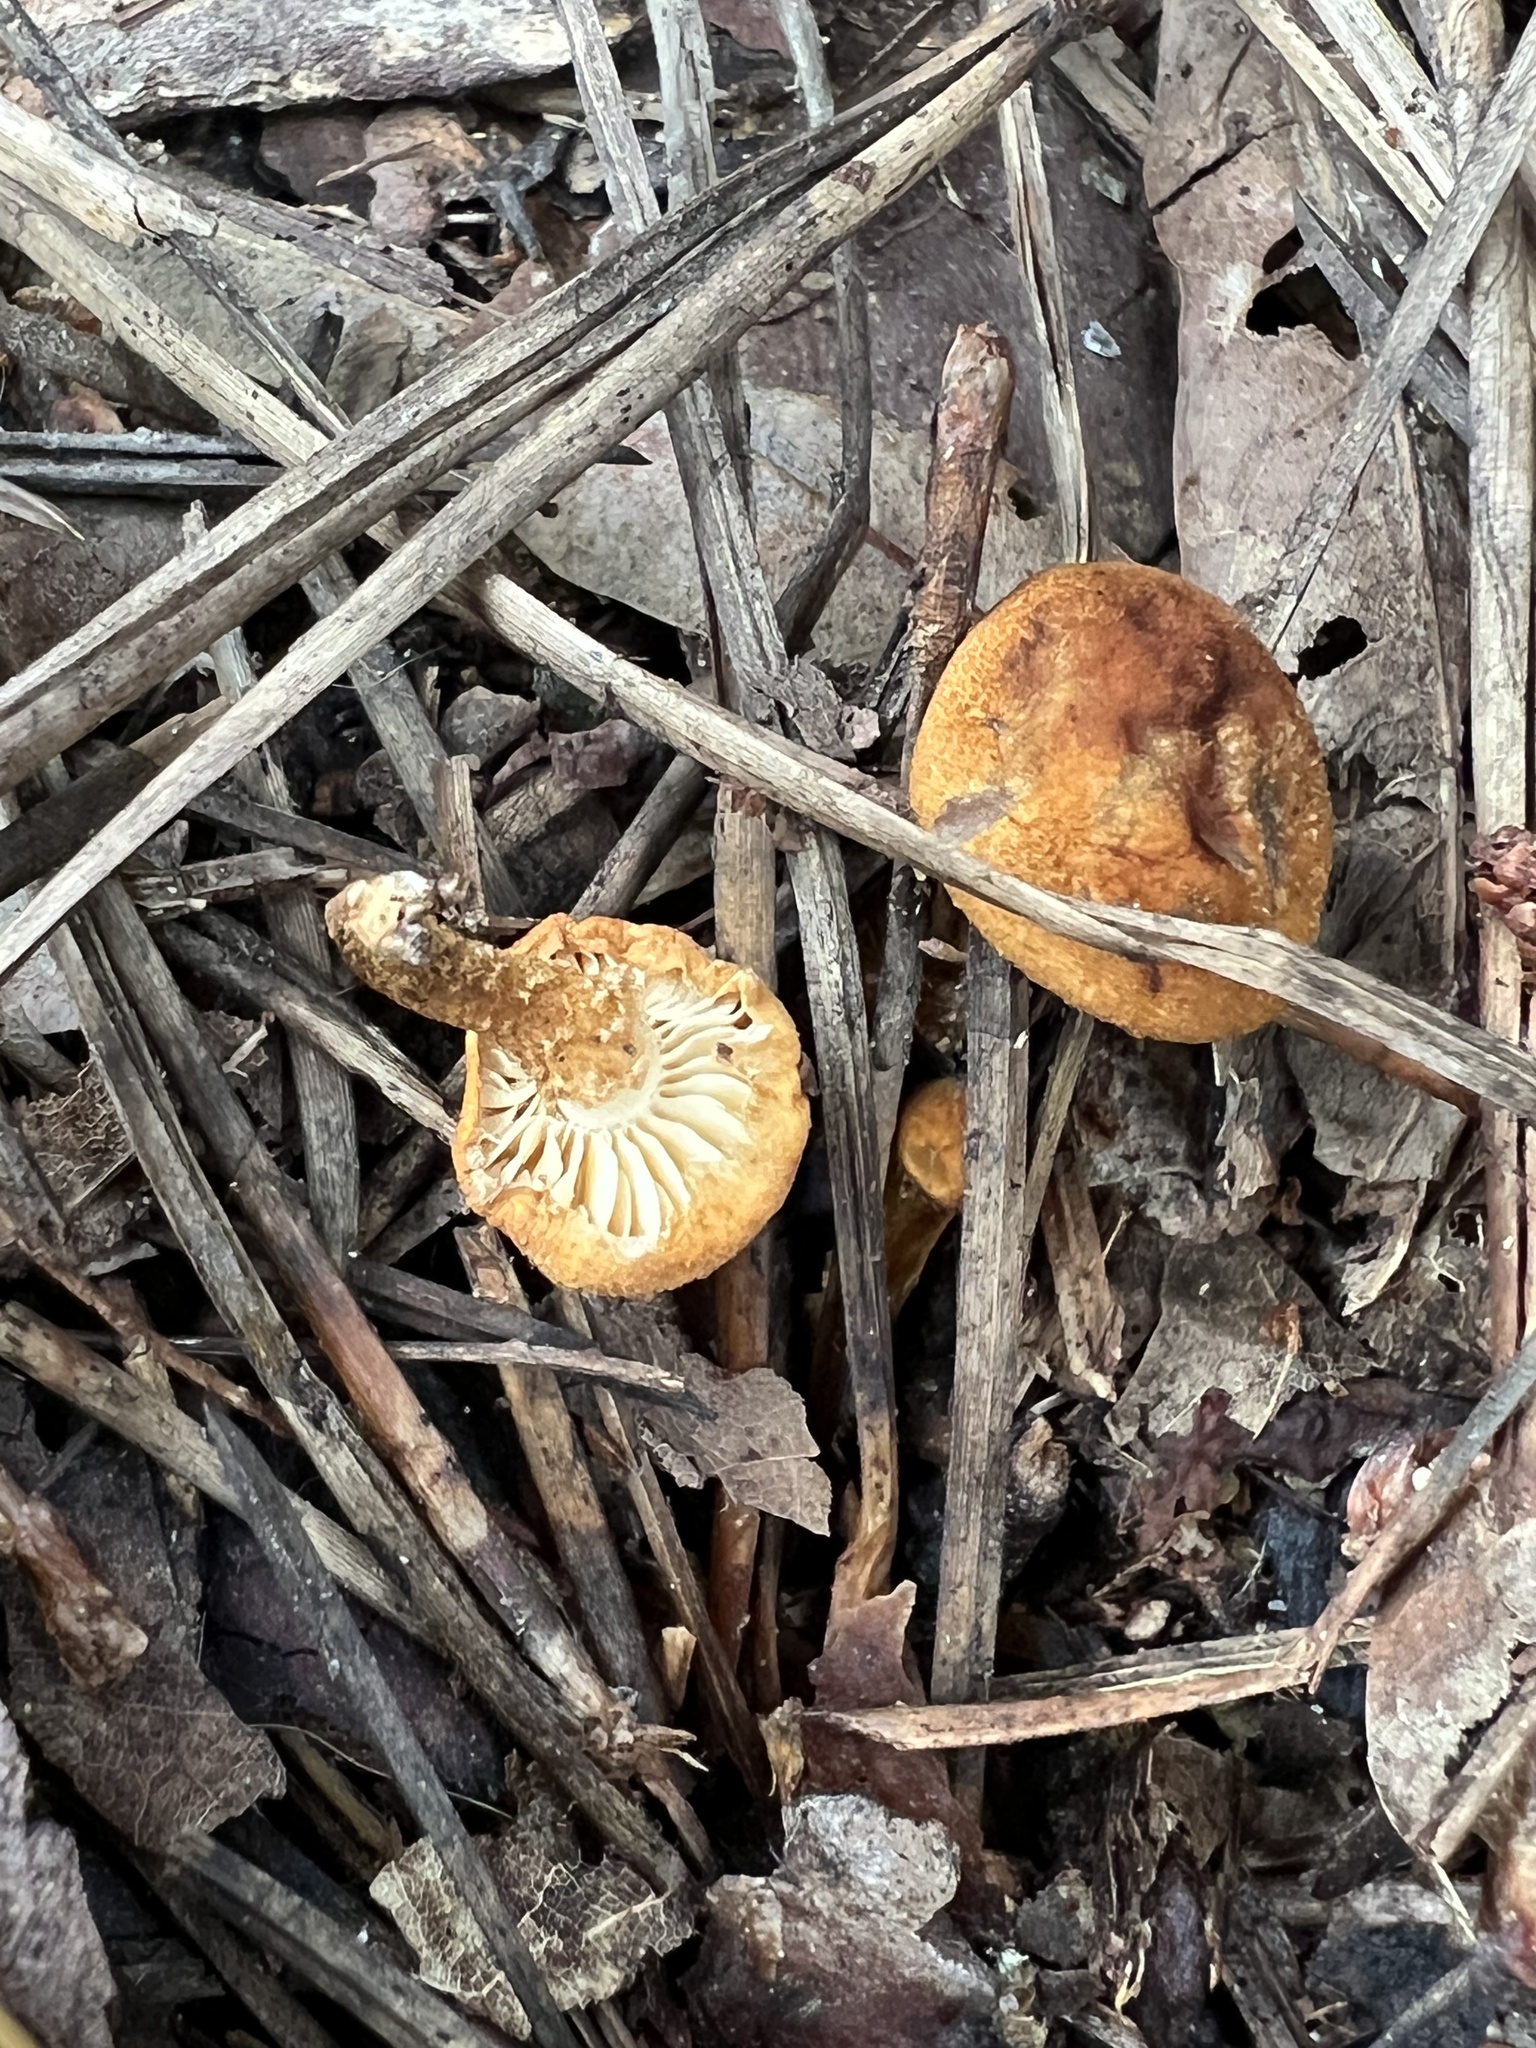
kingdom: Fungi
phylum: Basidiomycota
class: Agaricomycetes
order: Agaricales
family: Agaricaceae
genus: Cystodermella
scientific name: Cystodermella cinnabarina
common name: Cinnabar powdercap
